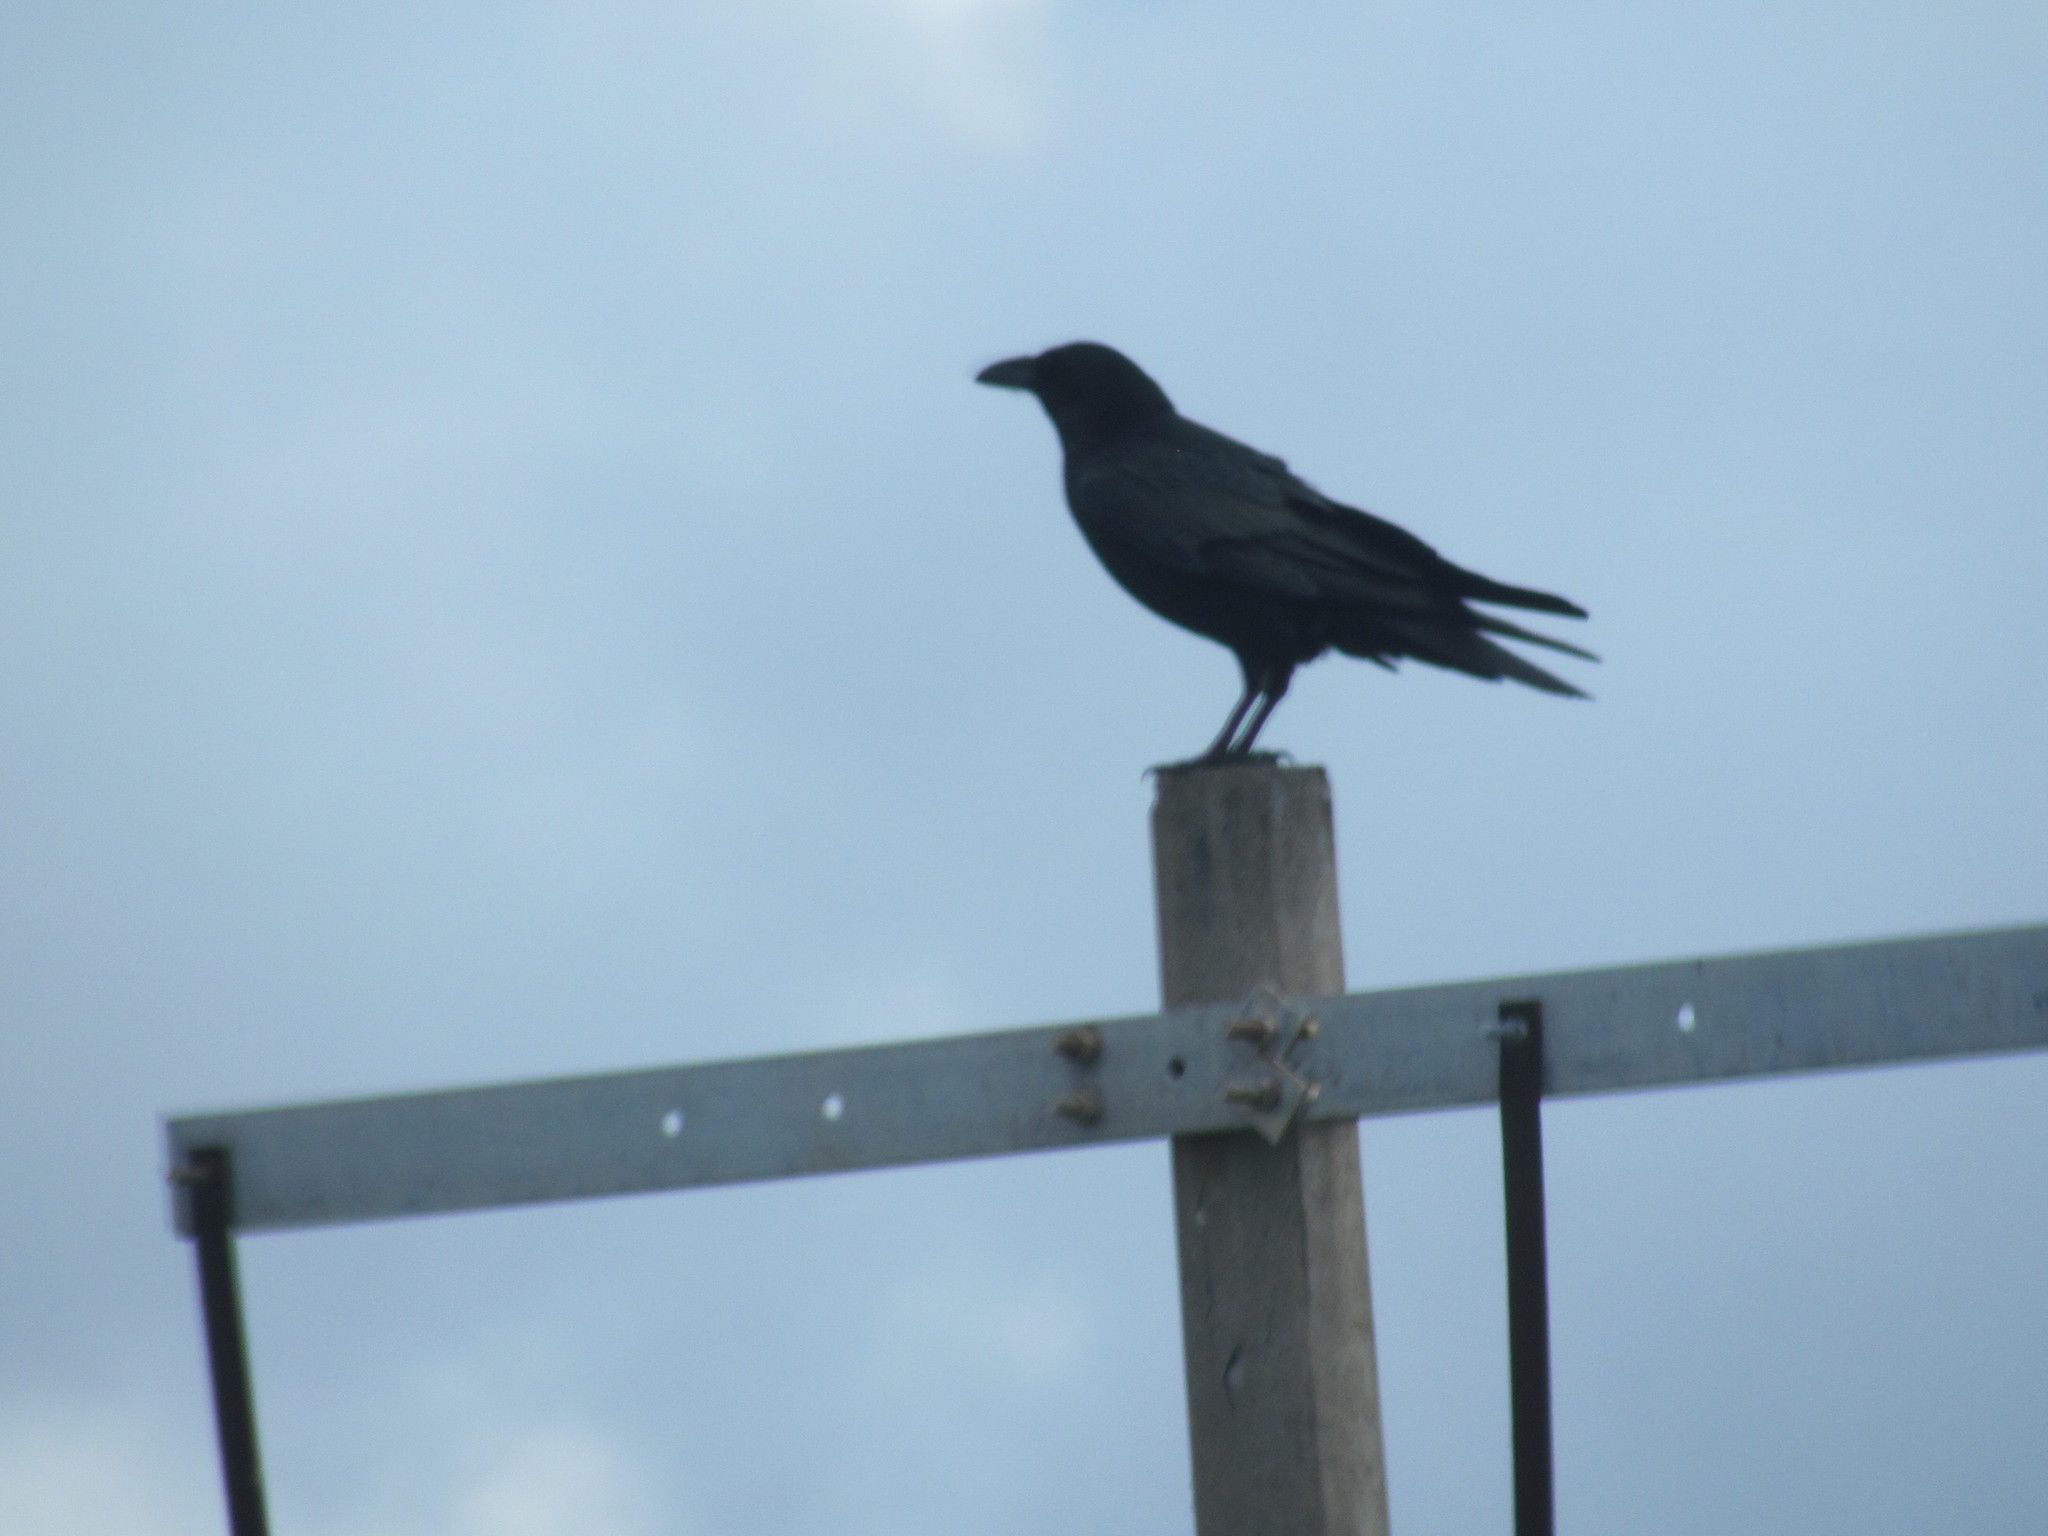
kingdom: Animalia
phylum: Chordata
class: Aves
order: Passeriformes
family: Corvidae
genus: Corvus
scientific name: Corvus corax
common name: Common raven
